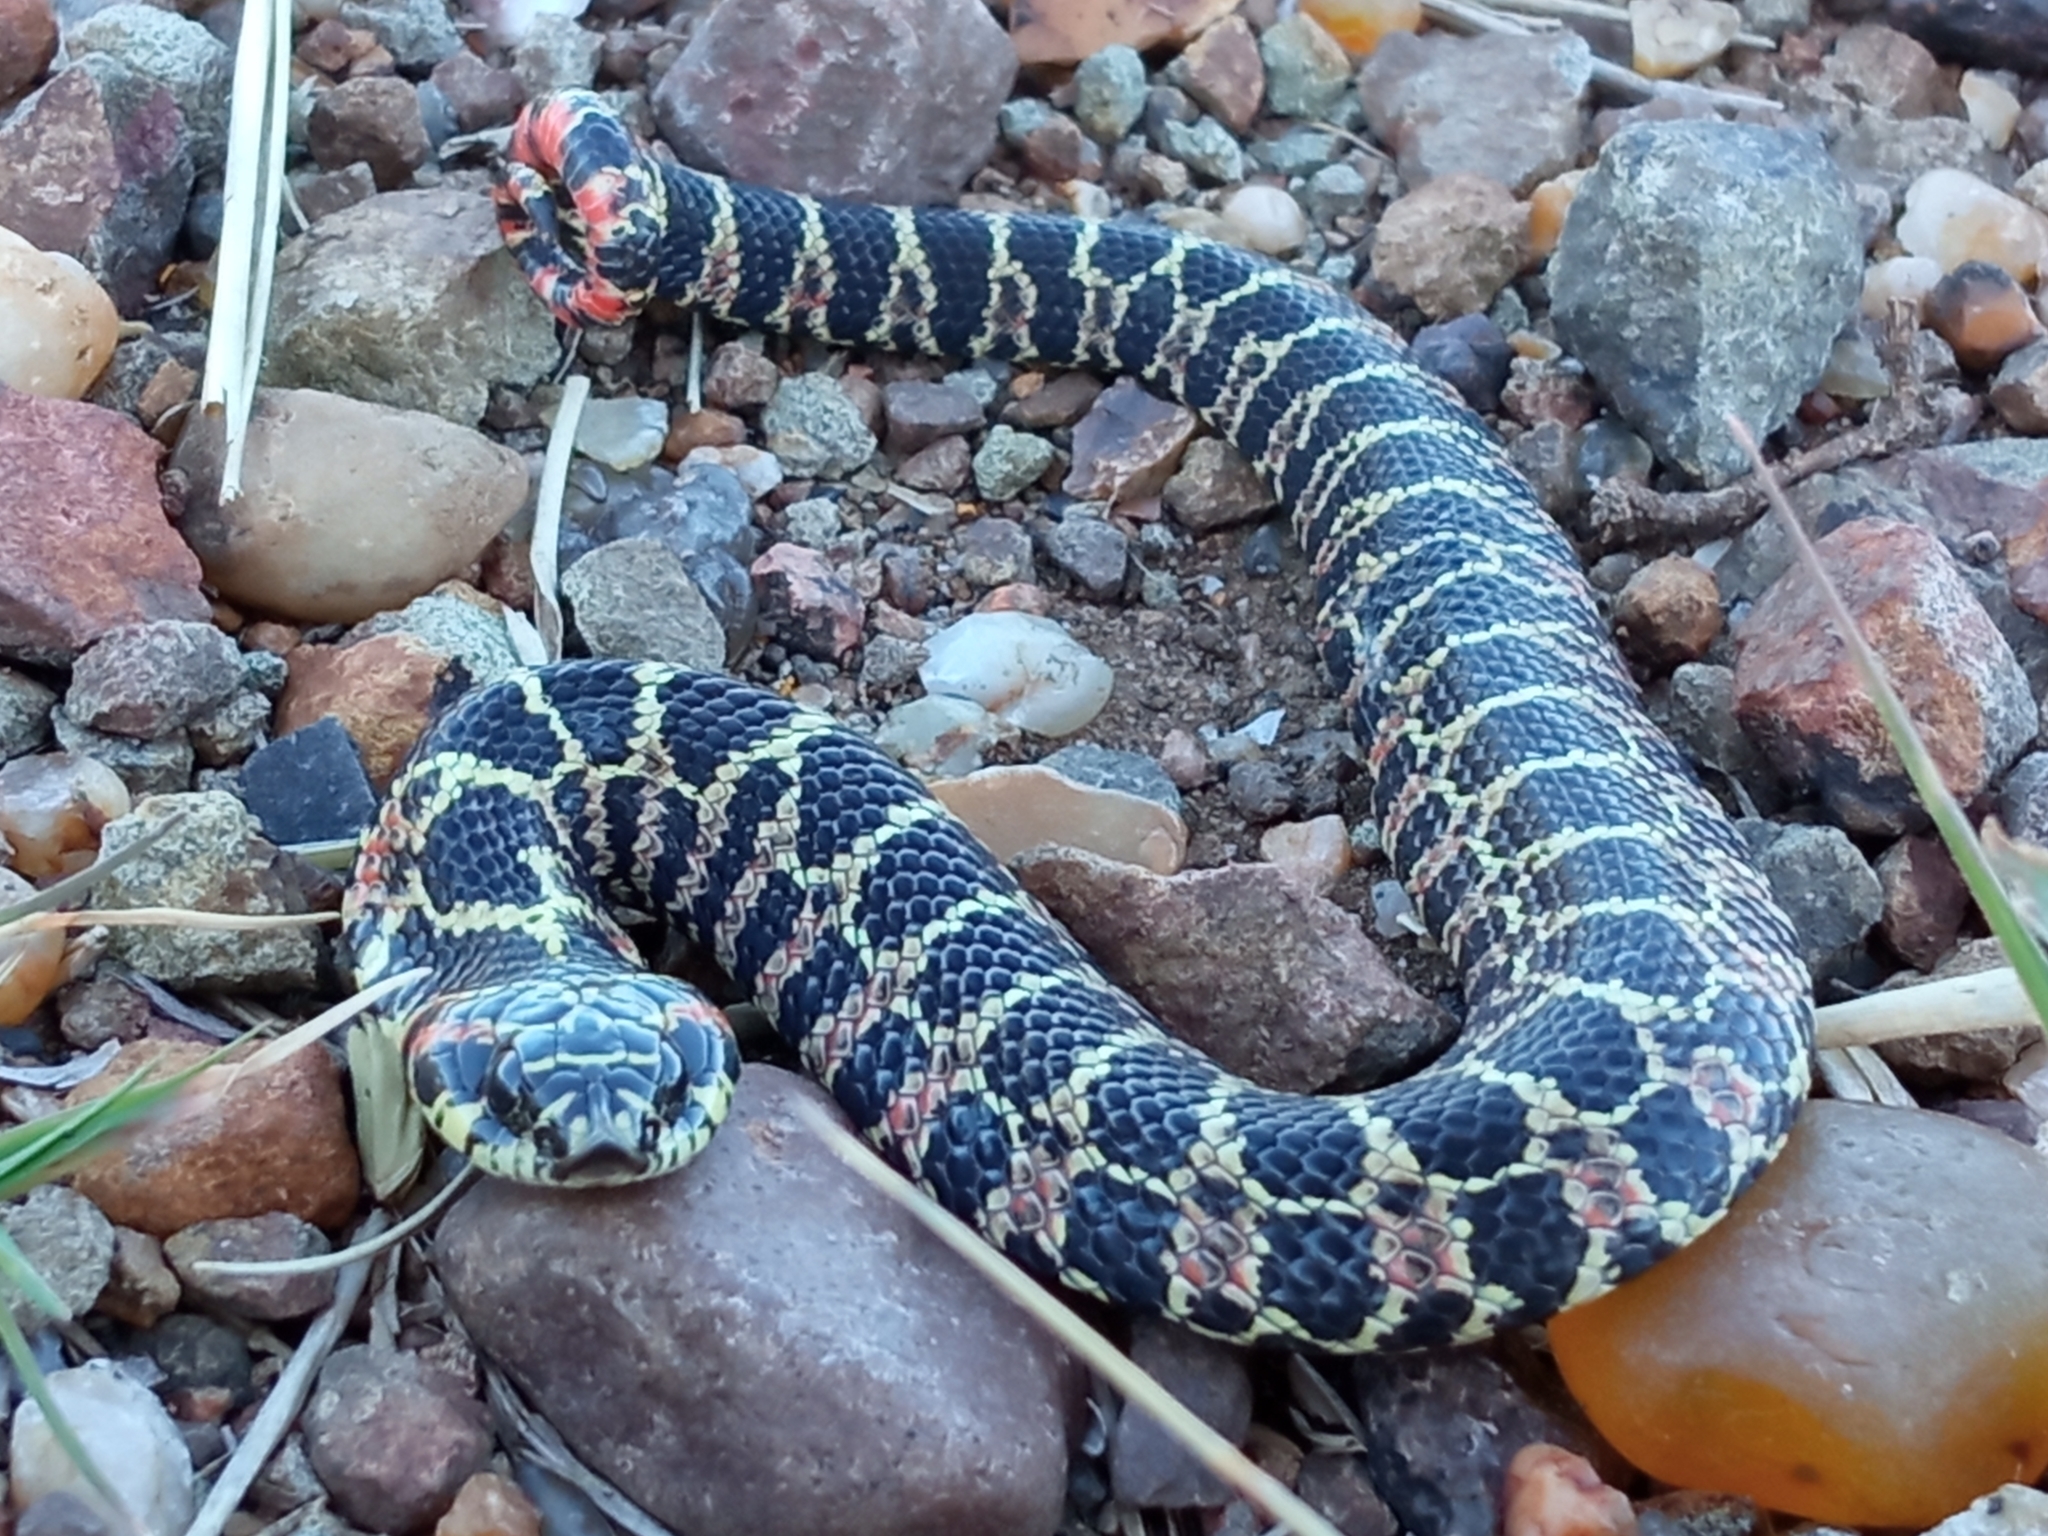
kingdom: Animalia
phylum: Chordata
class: Squamata
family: Colubridae
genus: Xenodon
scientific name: Xenodon dorbignyi
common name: South american hognose snake
